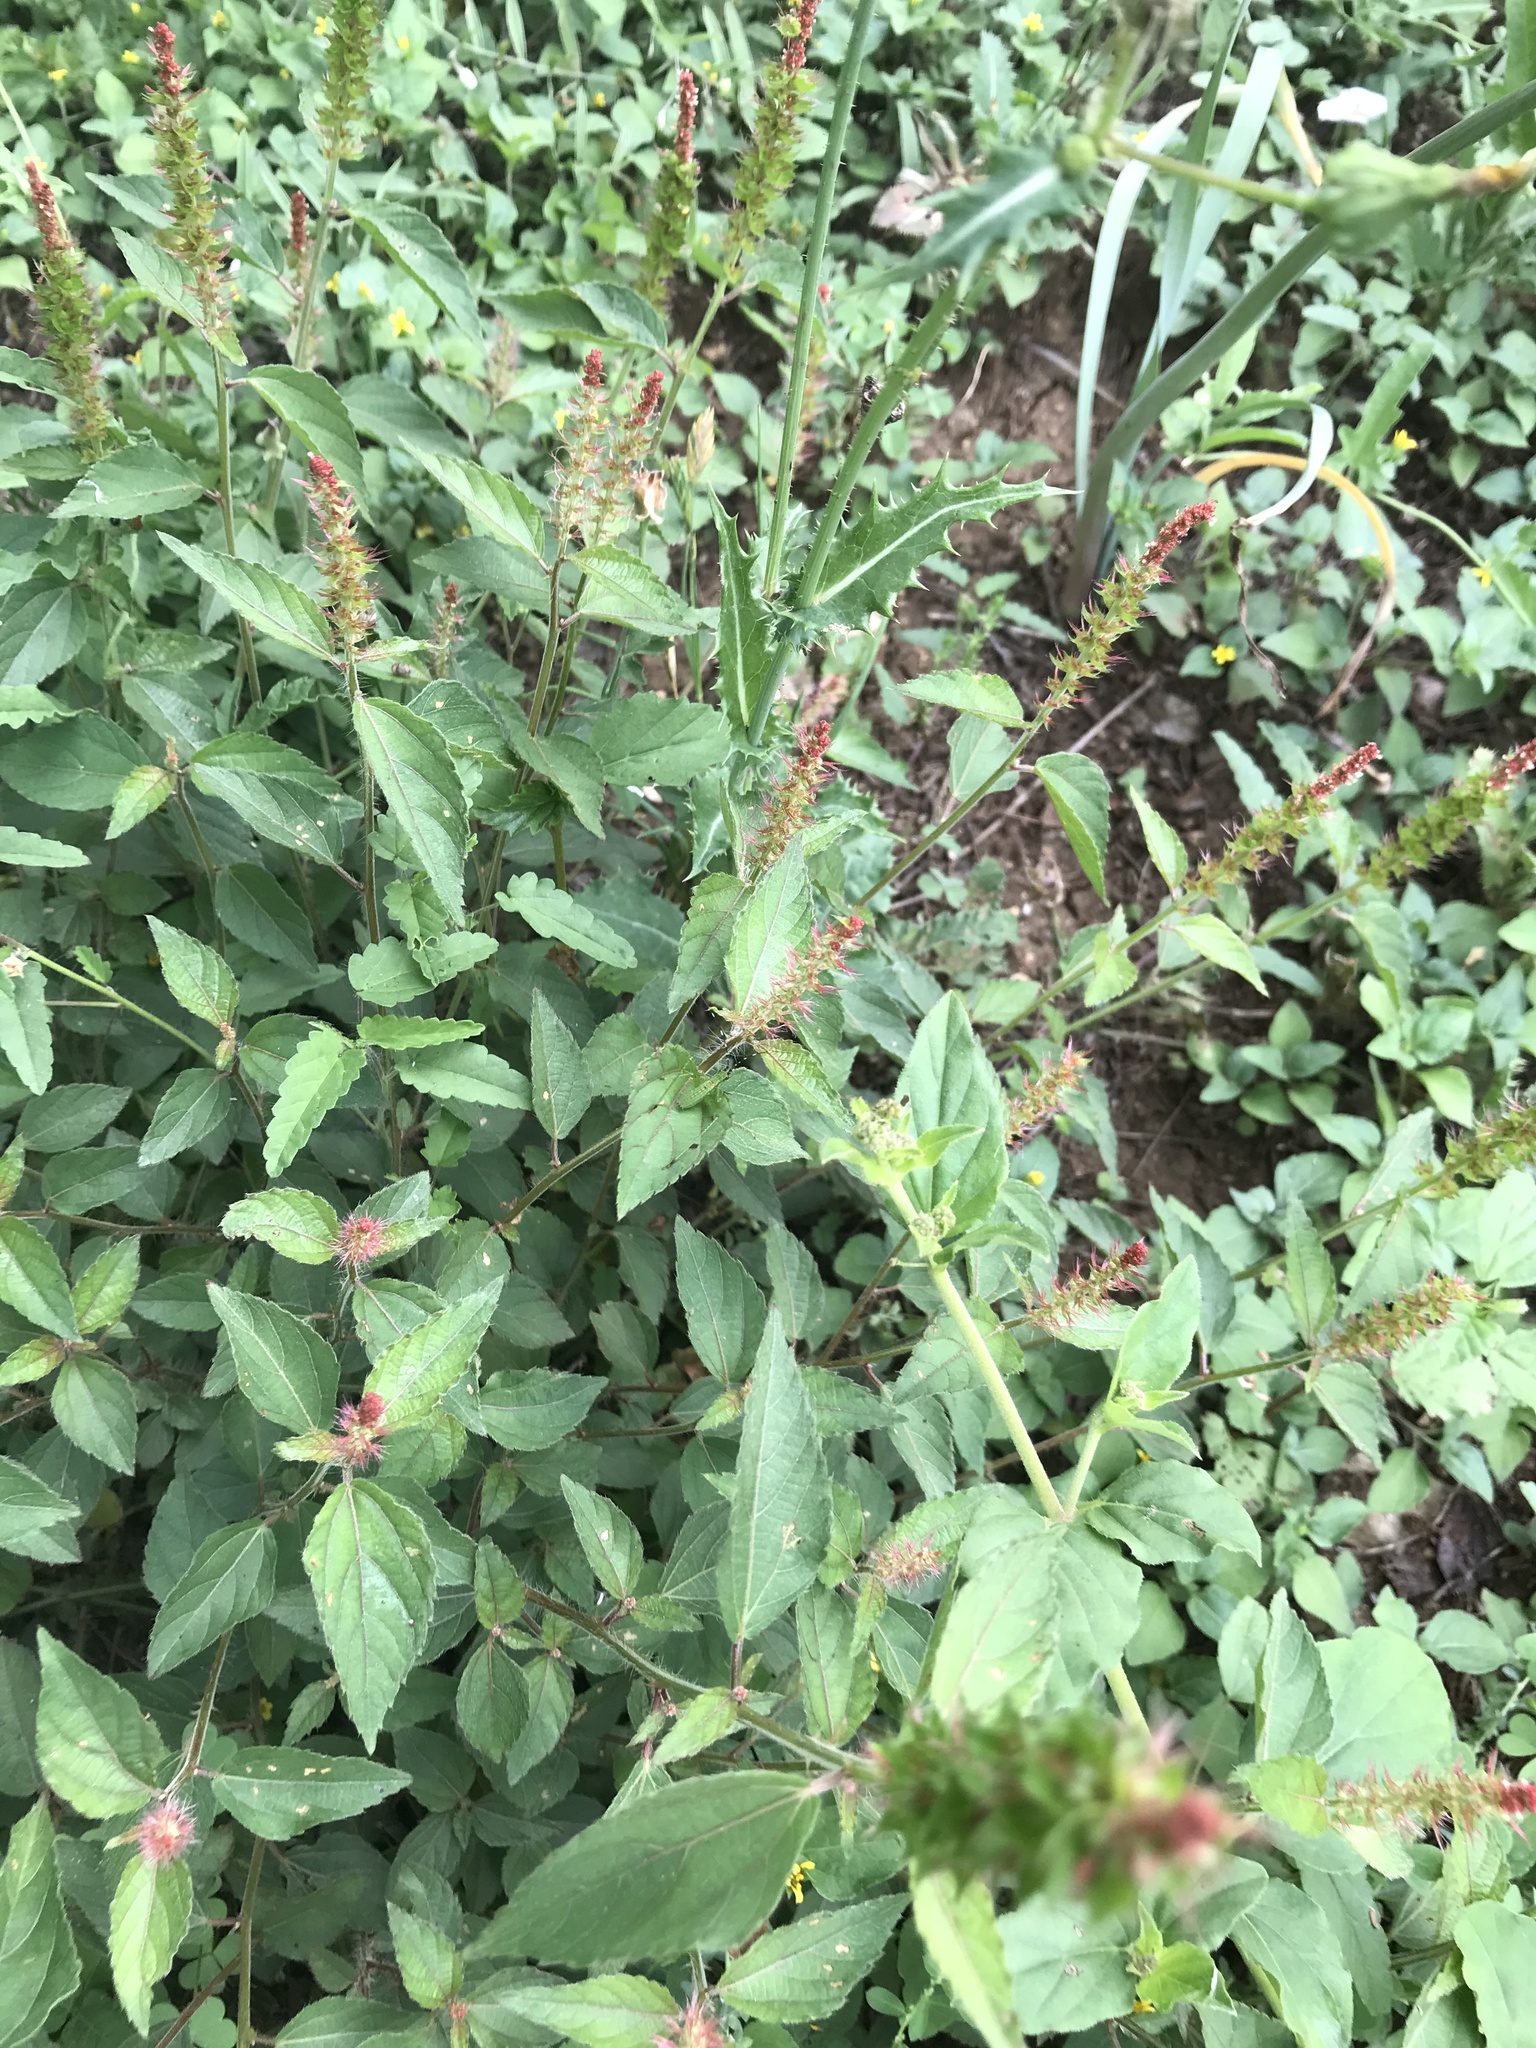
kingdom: Plantae
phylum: Tracheophyta
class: Magnoliopsida
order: Malpighiales
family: Euphorbiaceae
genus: Acalypha
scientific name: Acalypha phleoides
